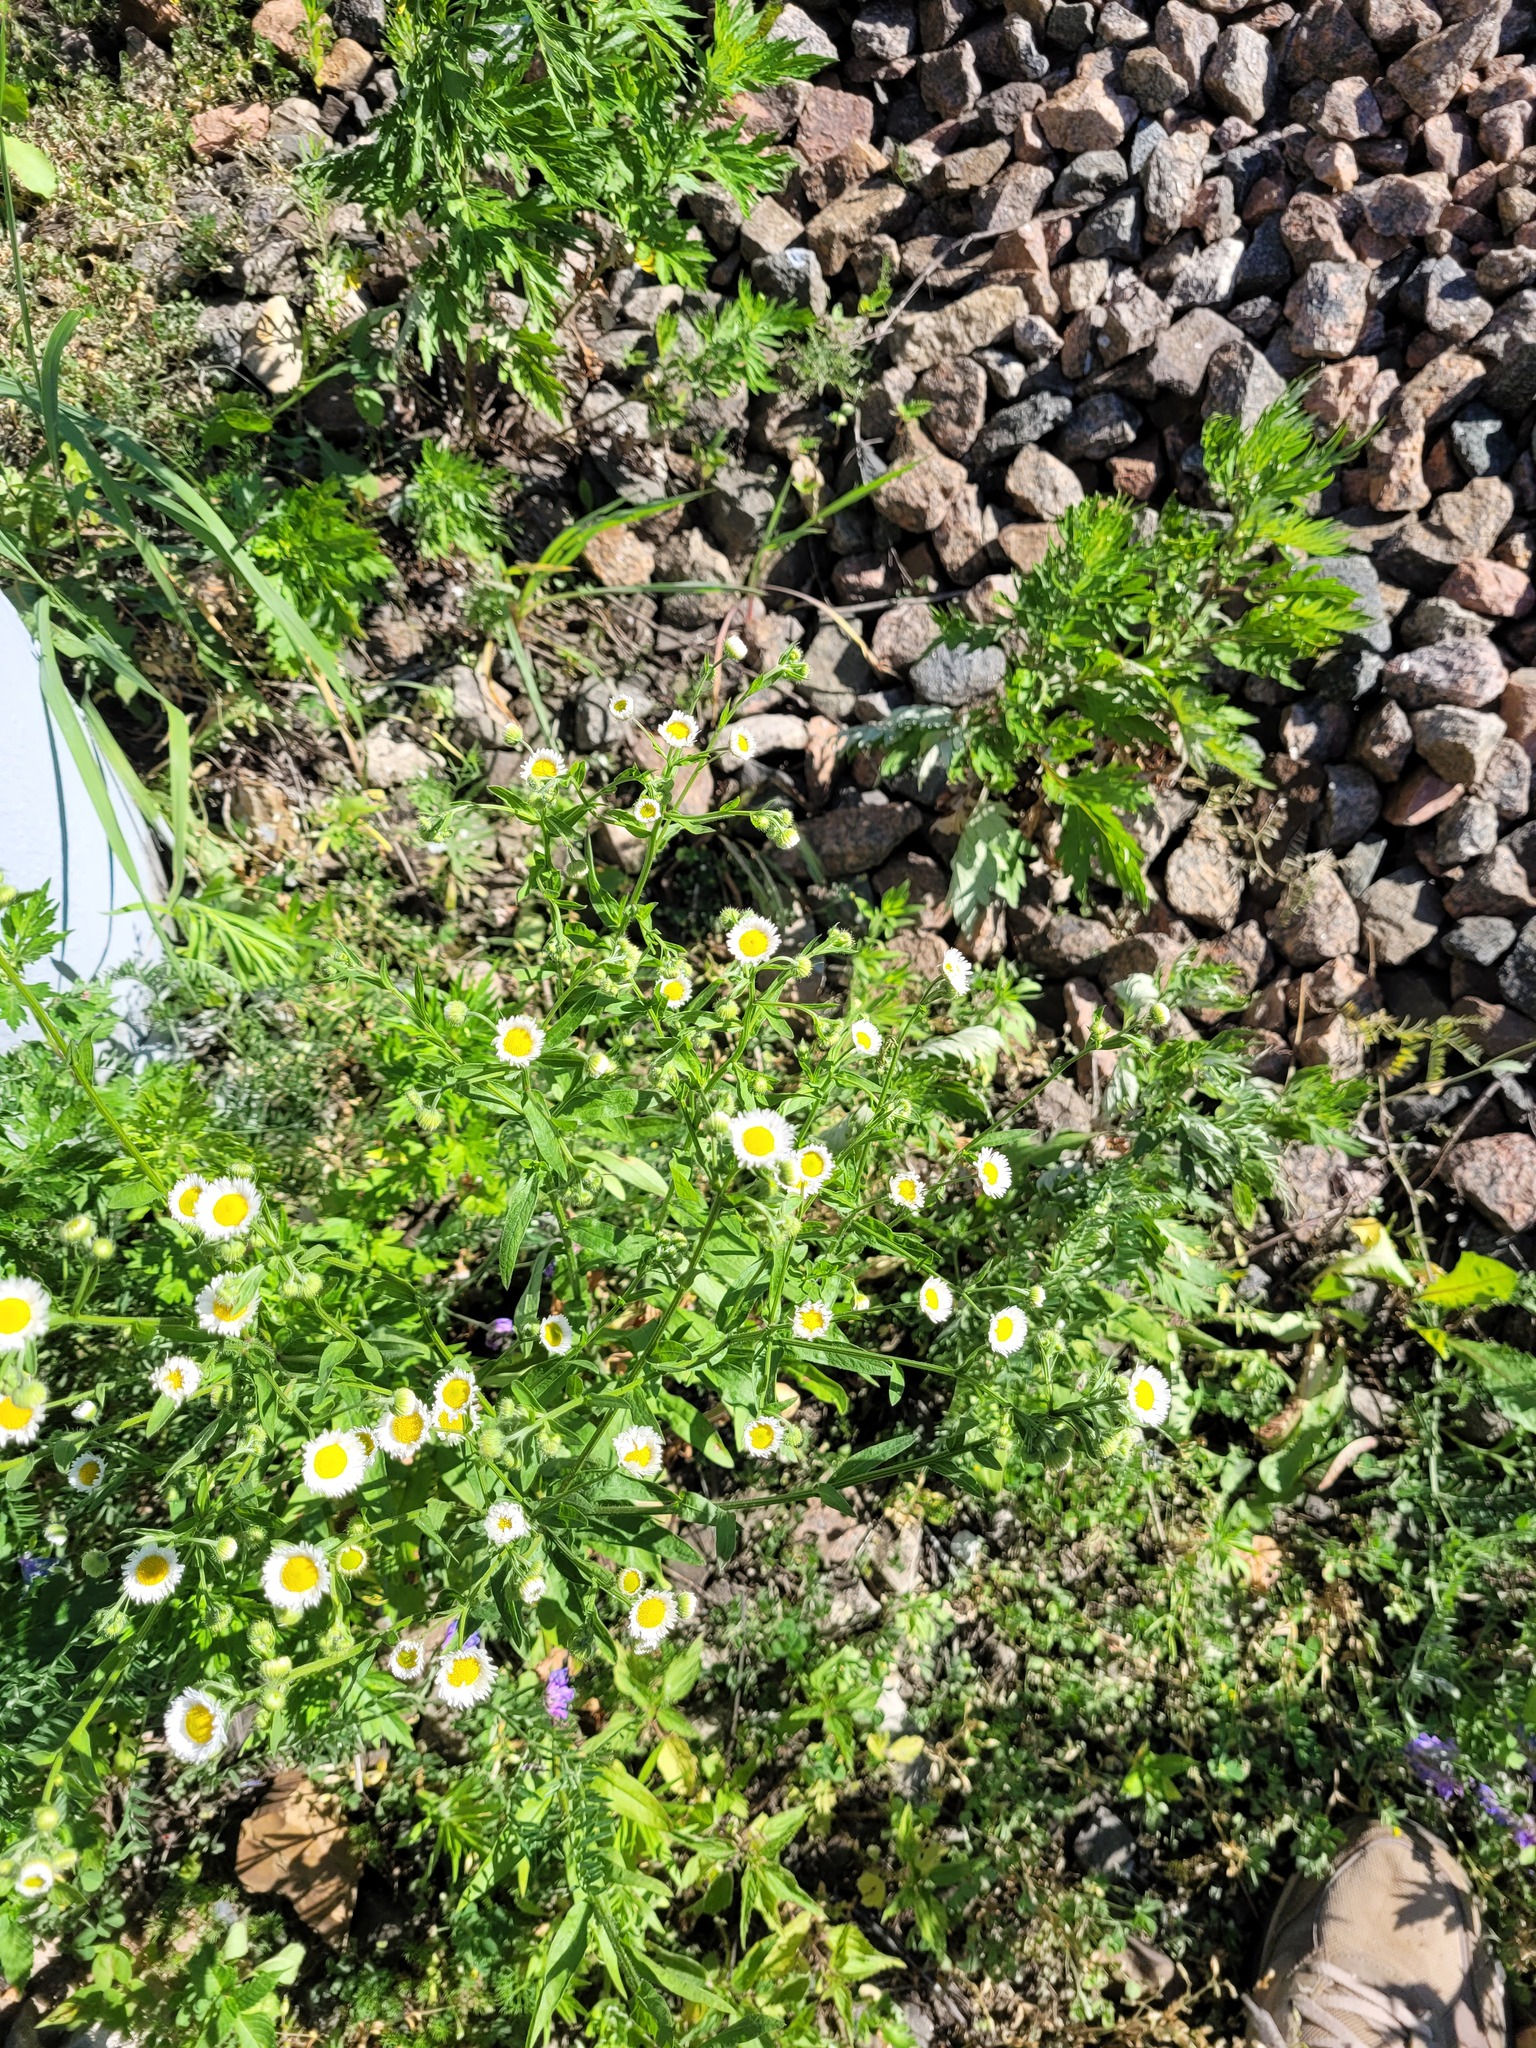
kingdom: Plantae
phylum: Tracheophyta
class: Magnoliopsida
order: Asterales
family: Asteraceae
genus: Erigeron
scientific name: Erigeron annuus
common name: Tall fleabane
